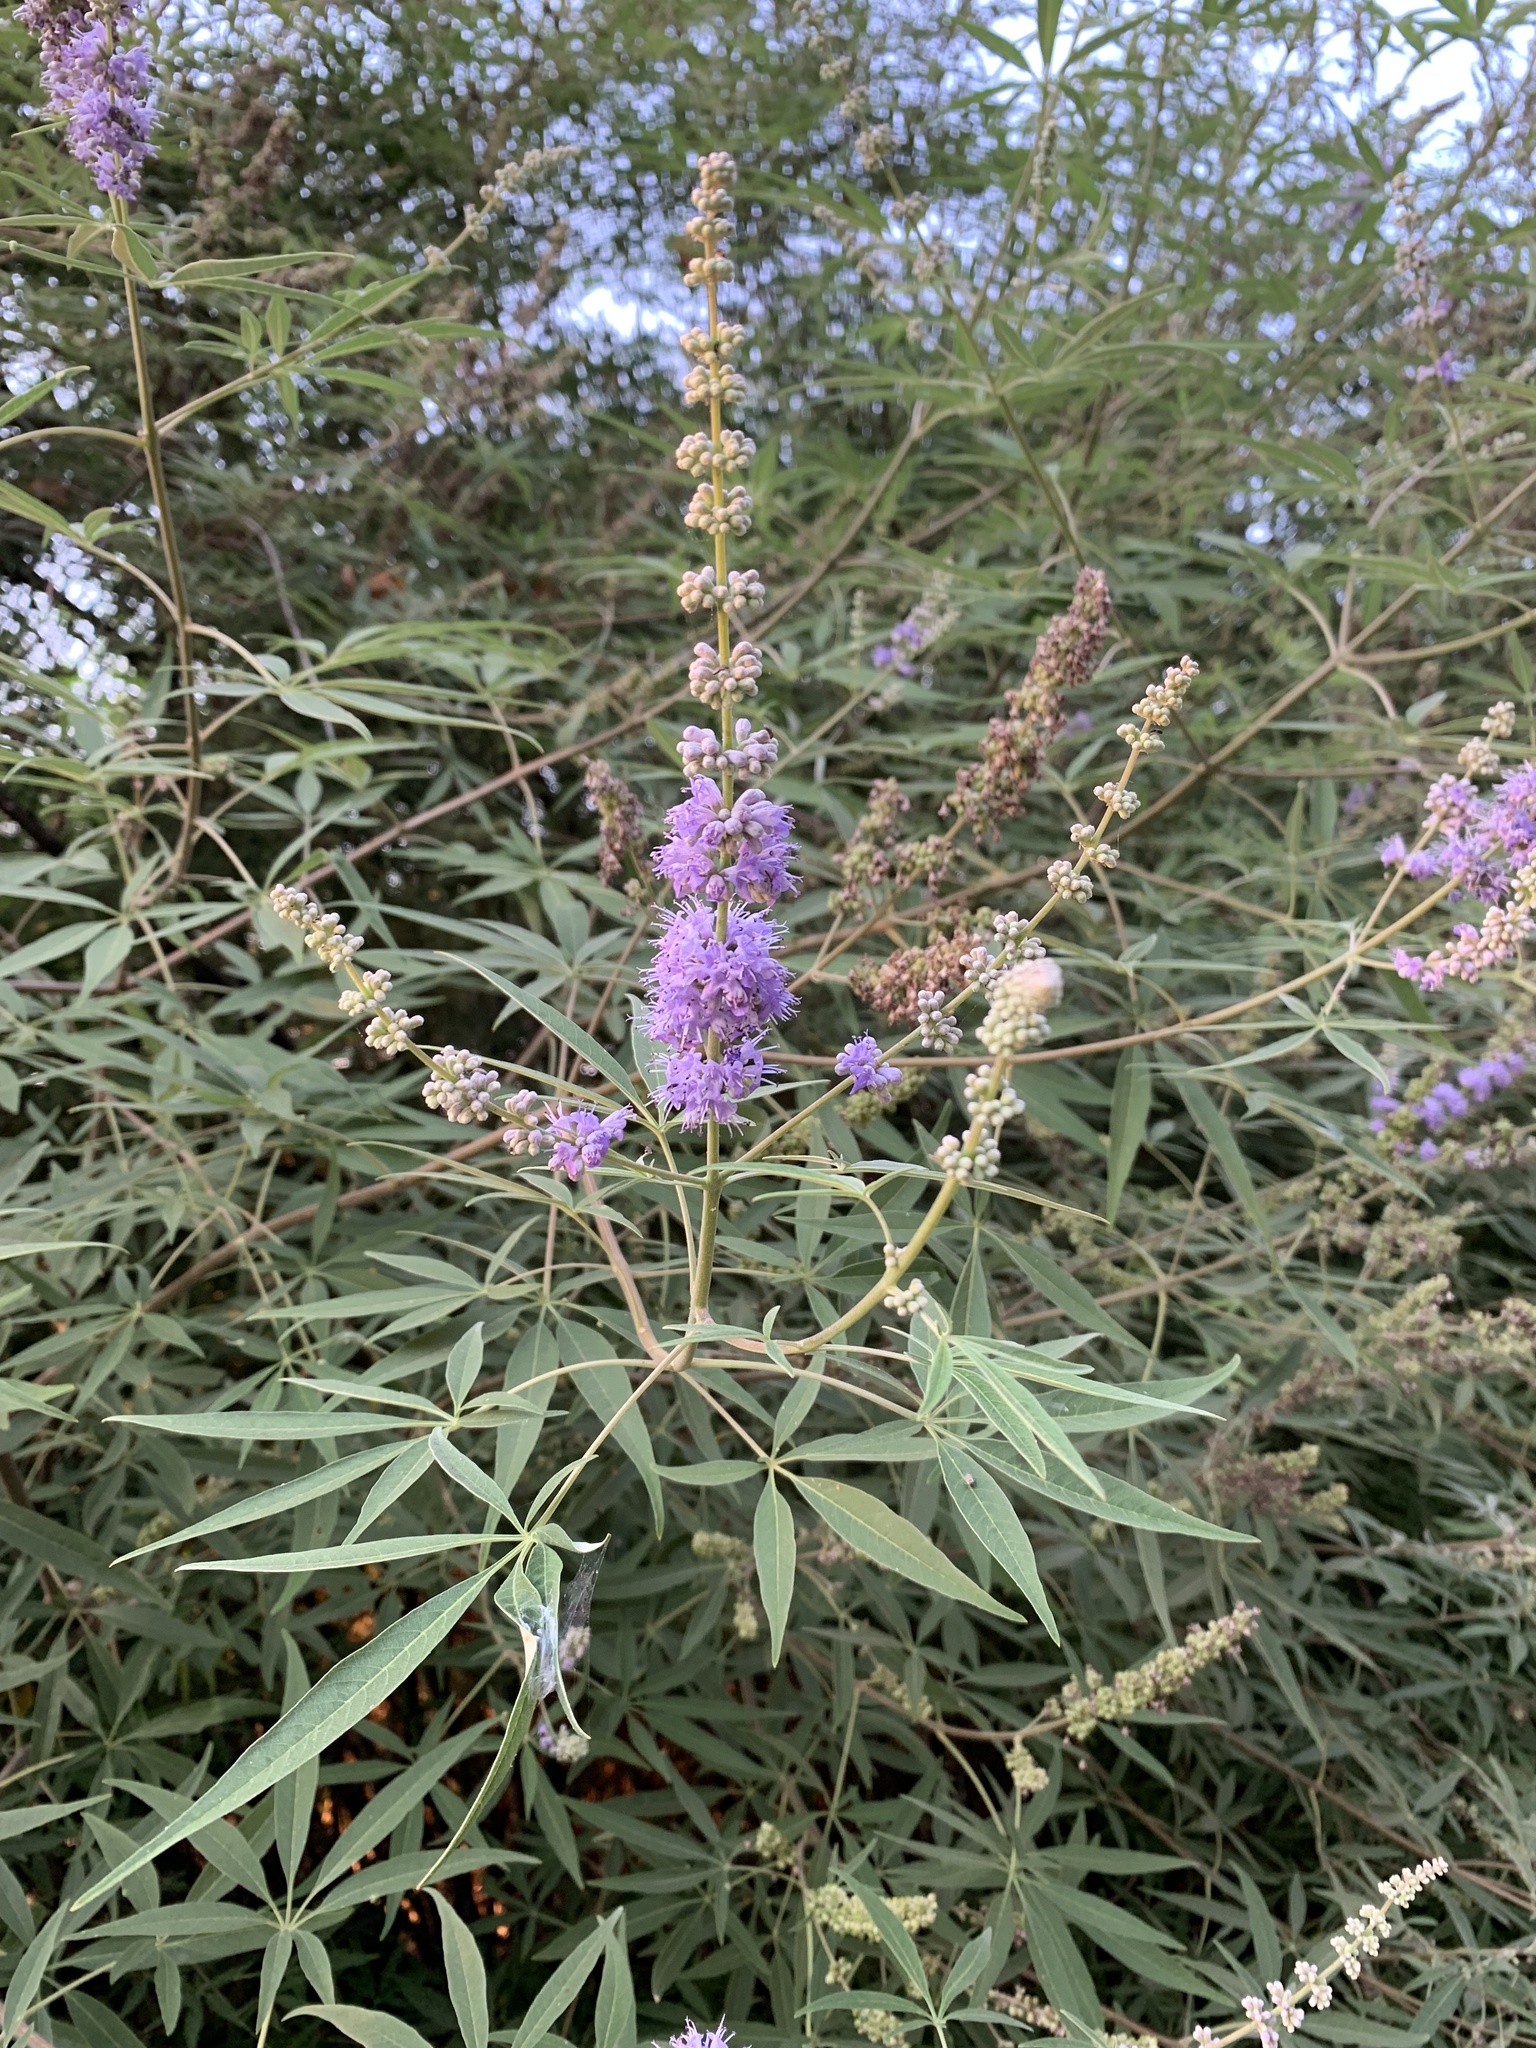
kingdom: Plantae
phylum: Tracheophyta
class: Magnoliopsida
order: Lamiales
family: Lamiaceae
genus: Vitex
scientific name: Vitex agnus-castus
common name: Chasteberry
